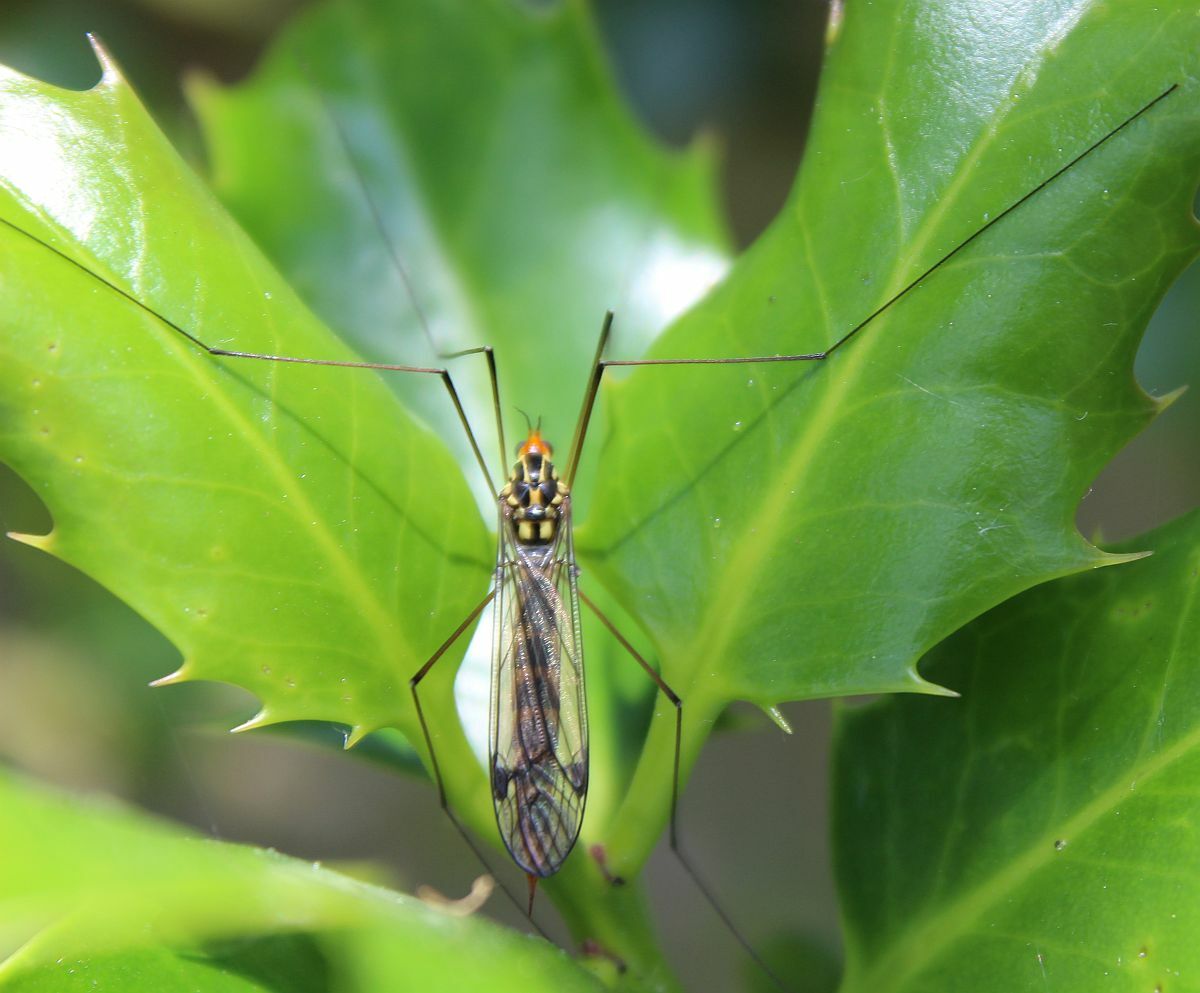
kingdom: Animalia
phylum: Arthropoda
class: Insecta
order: Diptera
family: Tipulidae
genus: Nephrotoma
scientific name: Nephrotoma flavipalpis
